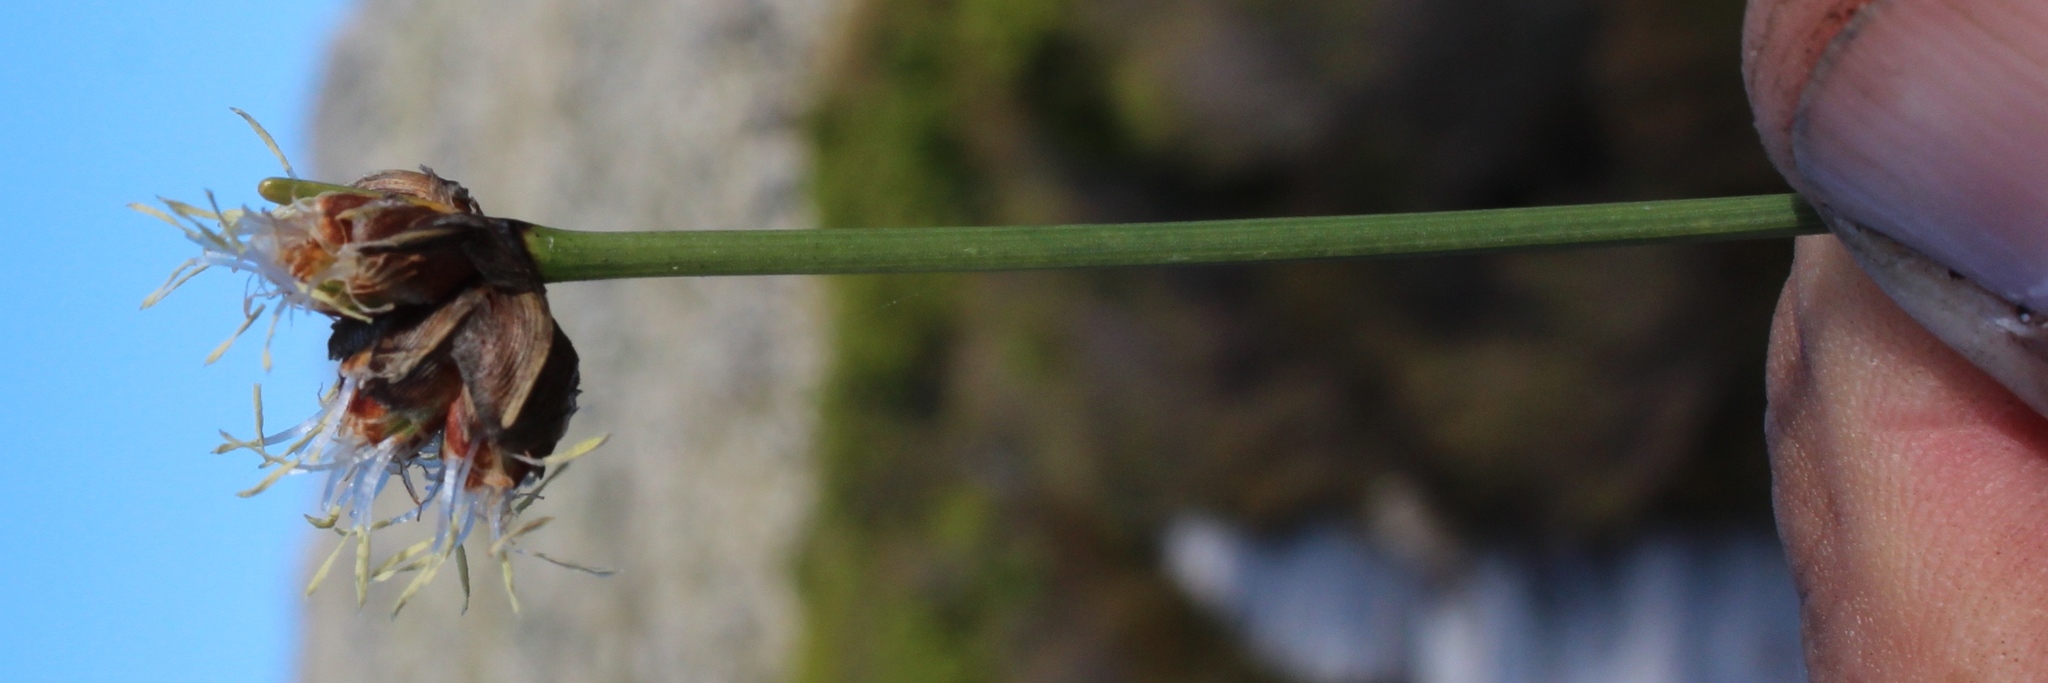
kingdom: Plantae
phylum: Tracheophyta
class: Liliopsida
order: Poales
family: Cyperaceae
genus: Ficinia
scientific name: Ficinia pinguior
